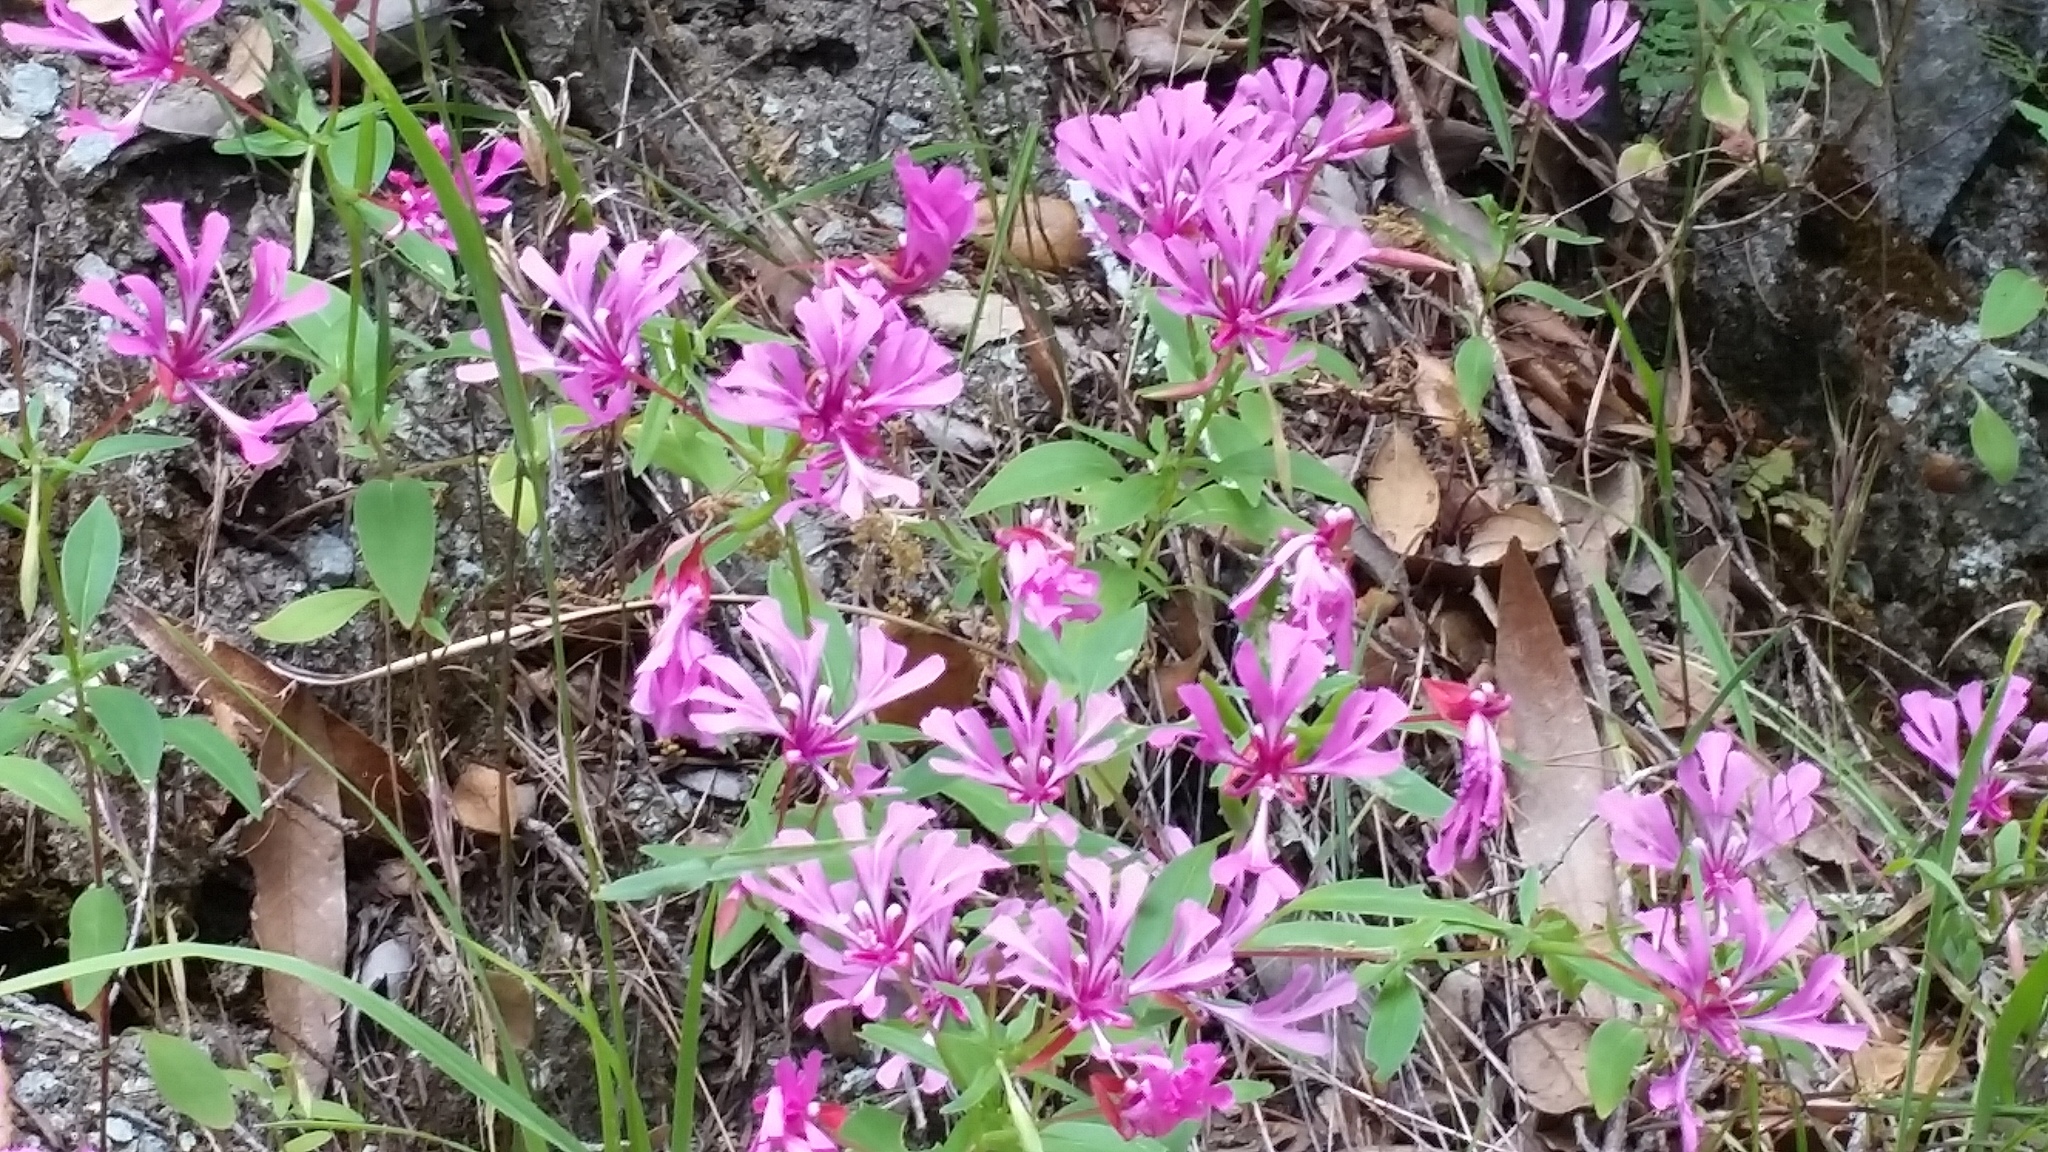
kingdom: Plantae
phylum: Tracheophyta
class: Magnoliopsida
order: Myrtales
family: Onagraceae
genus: Clarkia
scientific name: Clarkia concinna
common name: Red-ribbons
